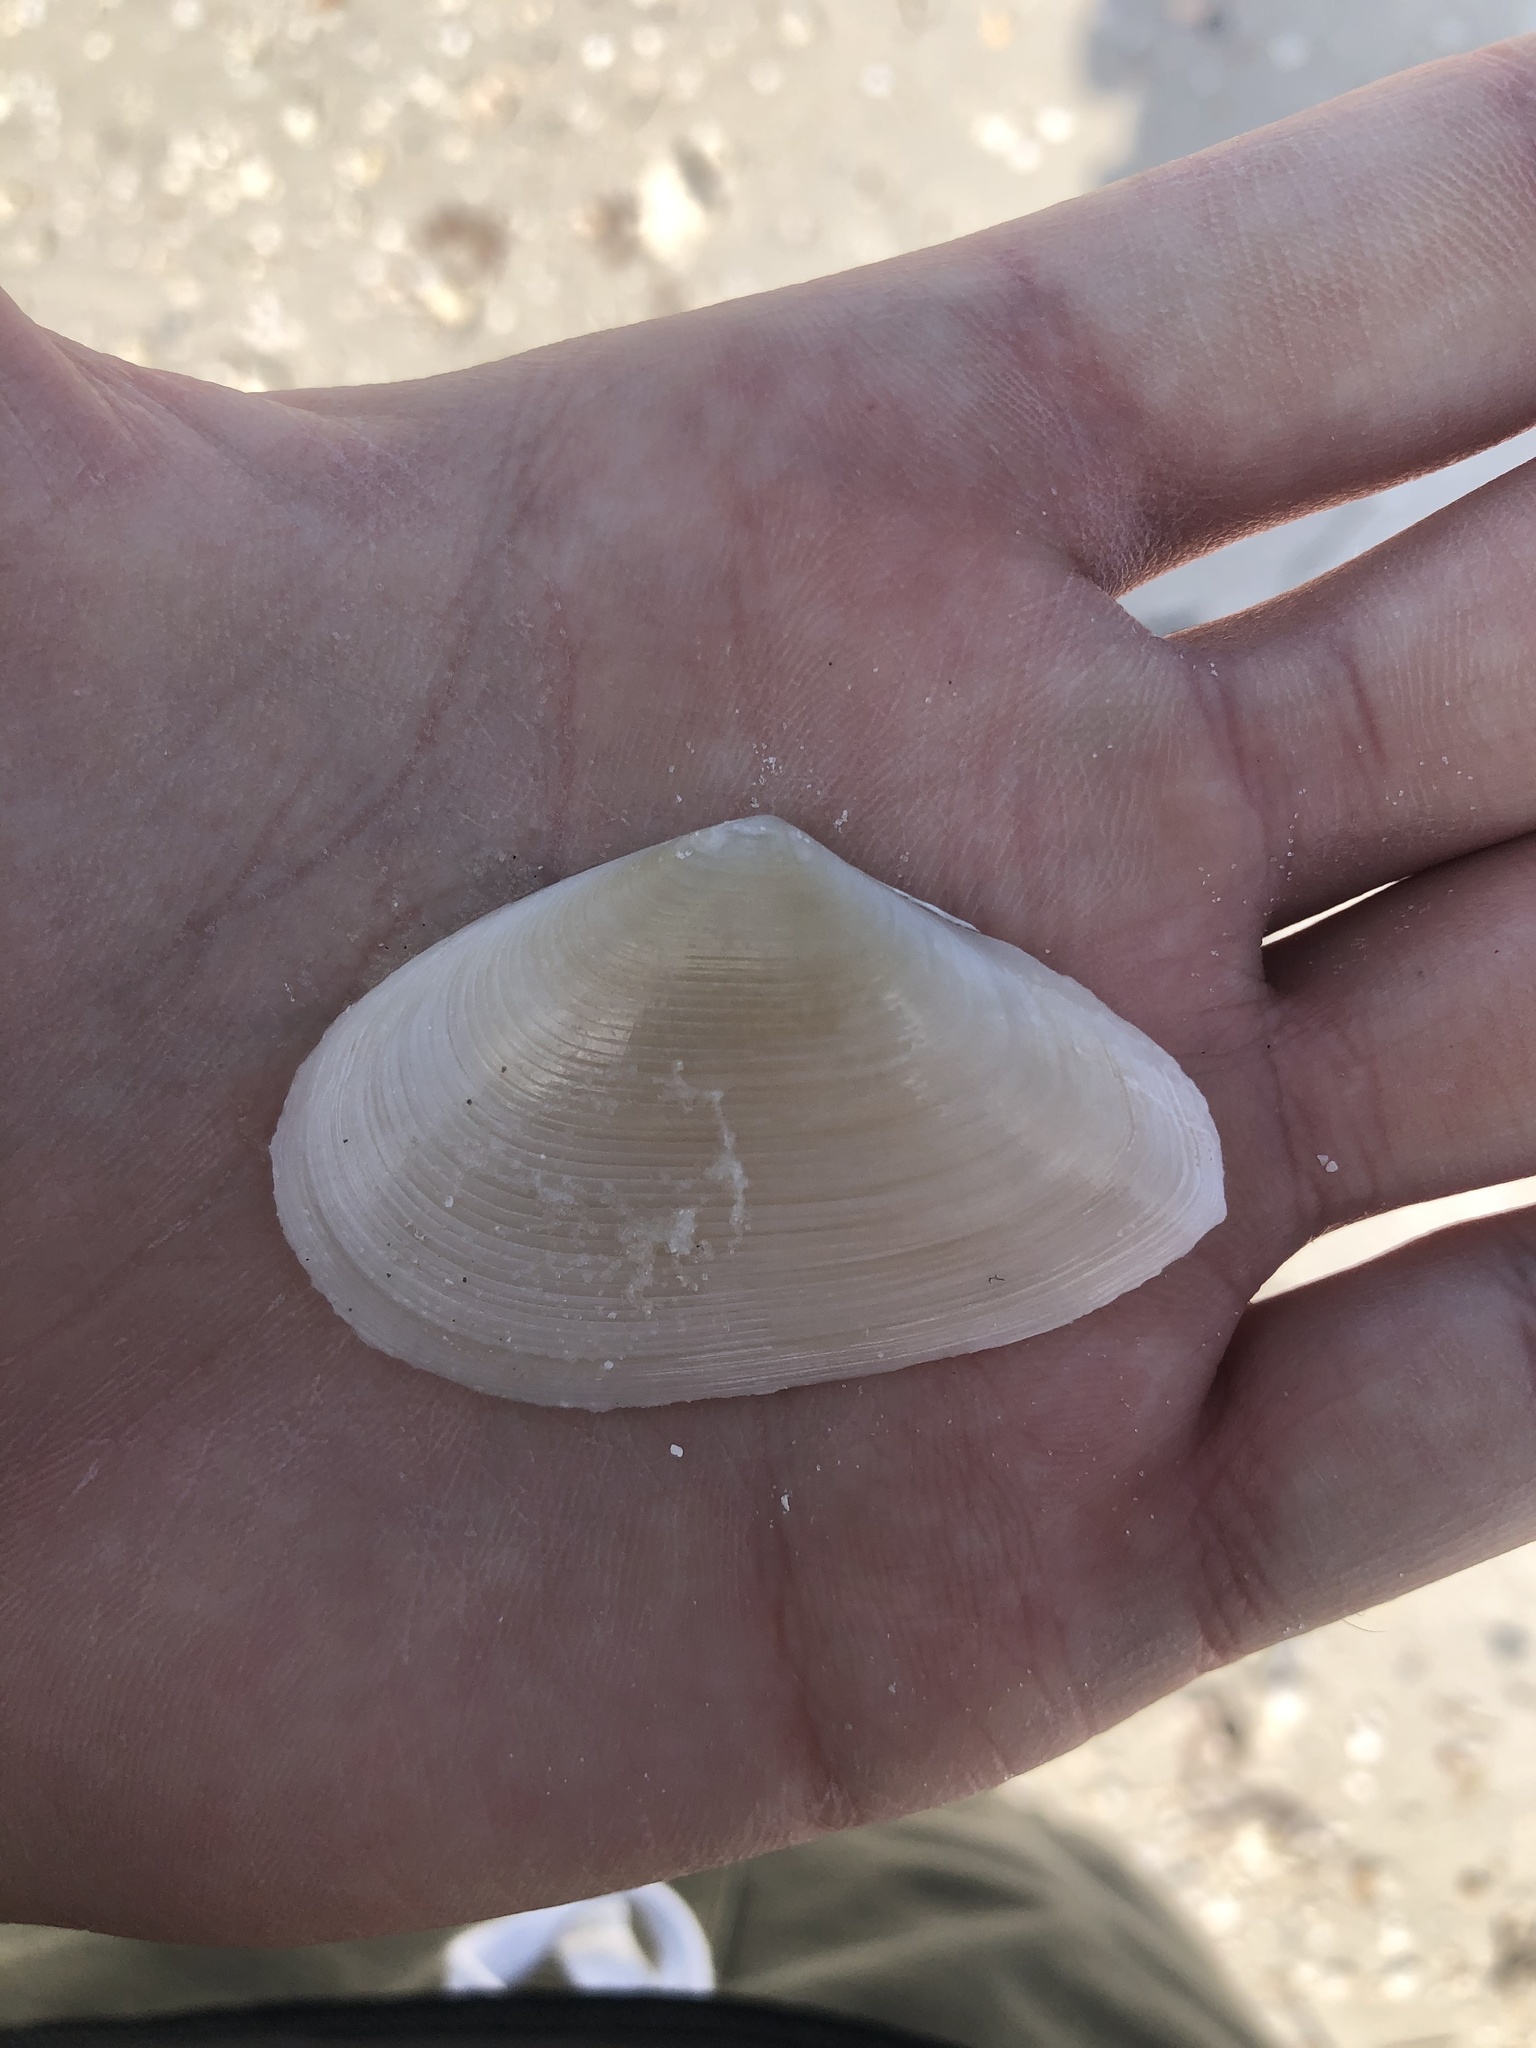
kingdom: Animalia
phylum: Mollusca
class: Bivalvia
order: Cardiida
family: Tellinidae
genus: Eurytellina
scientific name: Eurytellina alternata
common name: Alternate tellin
